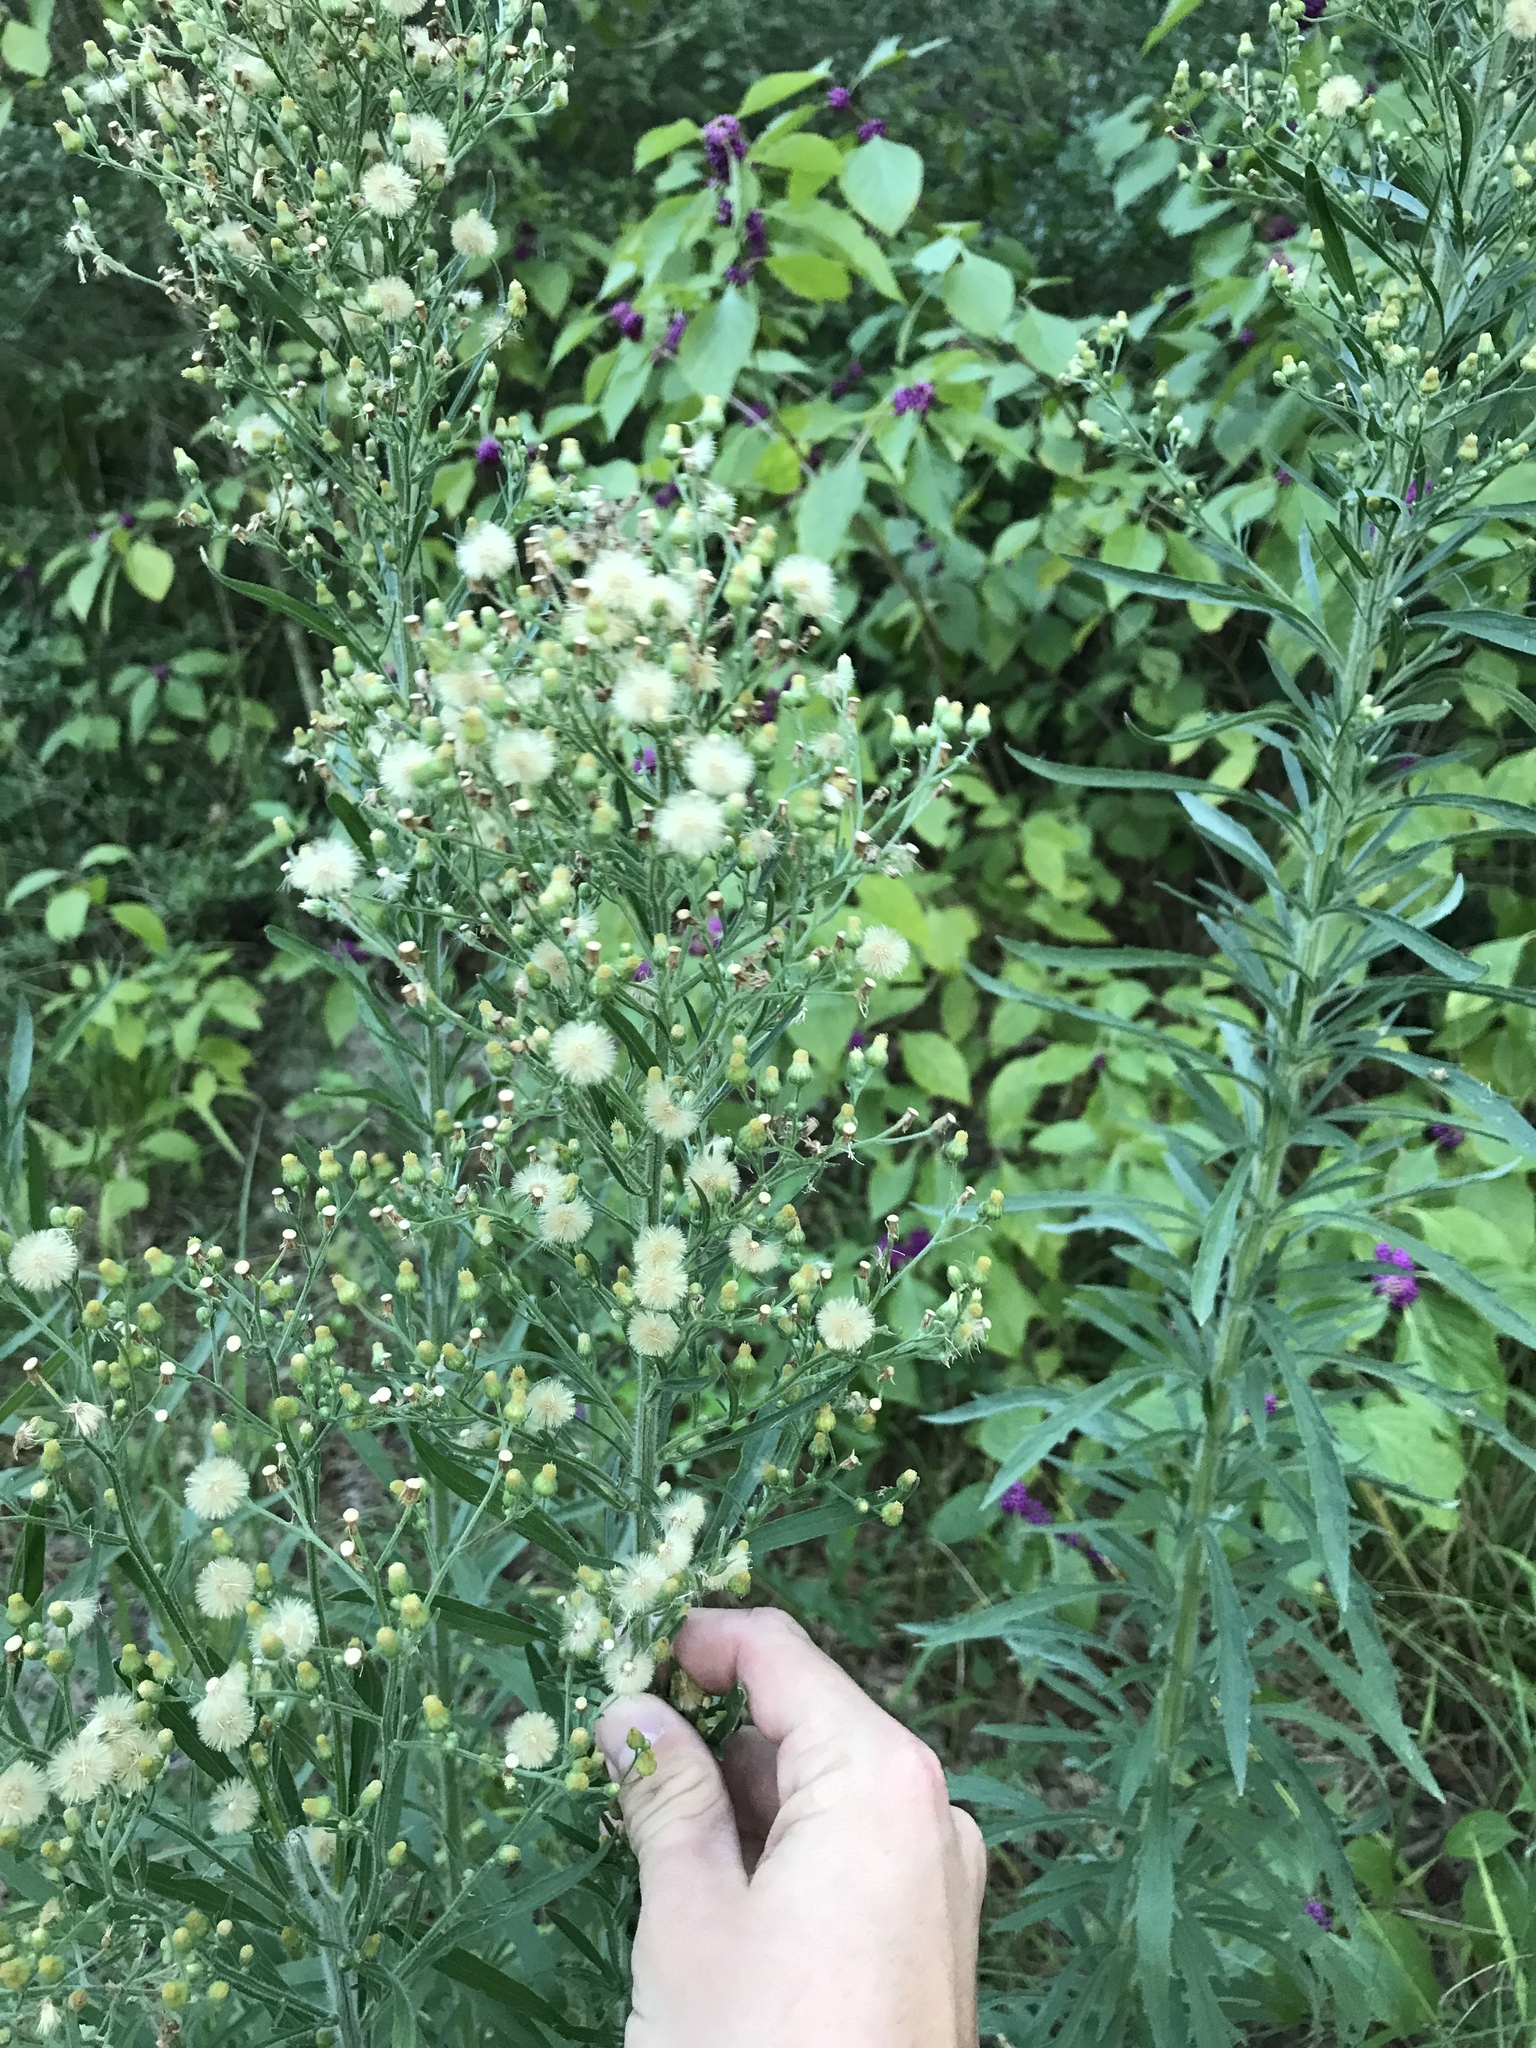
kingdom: Plantae
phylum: Tracheophyta
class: Magnoliopsida
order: Asterales
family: Asteraceae
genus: Erigeron
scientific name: Erigeron canadensis
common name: Canadian fleabane
